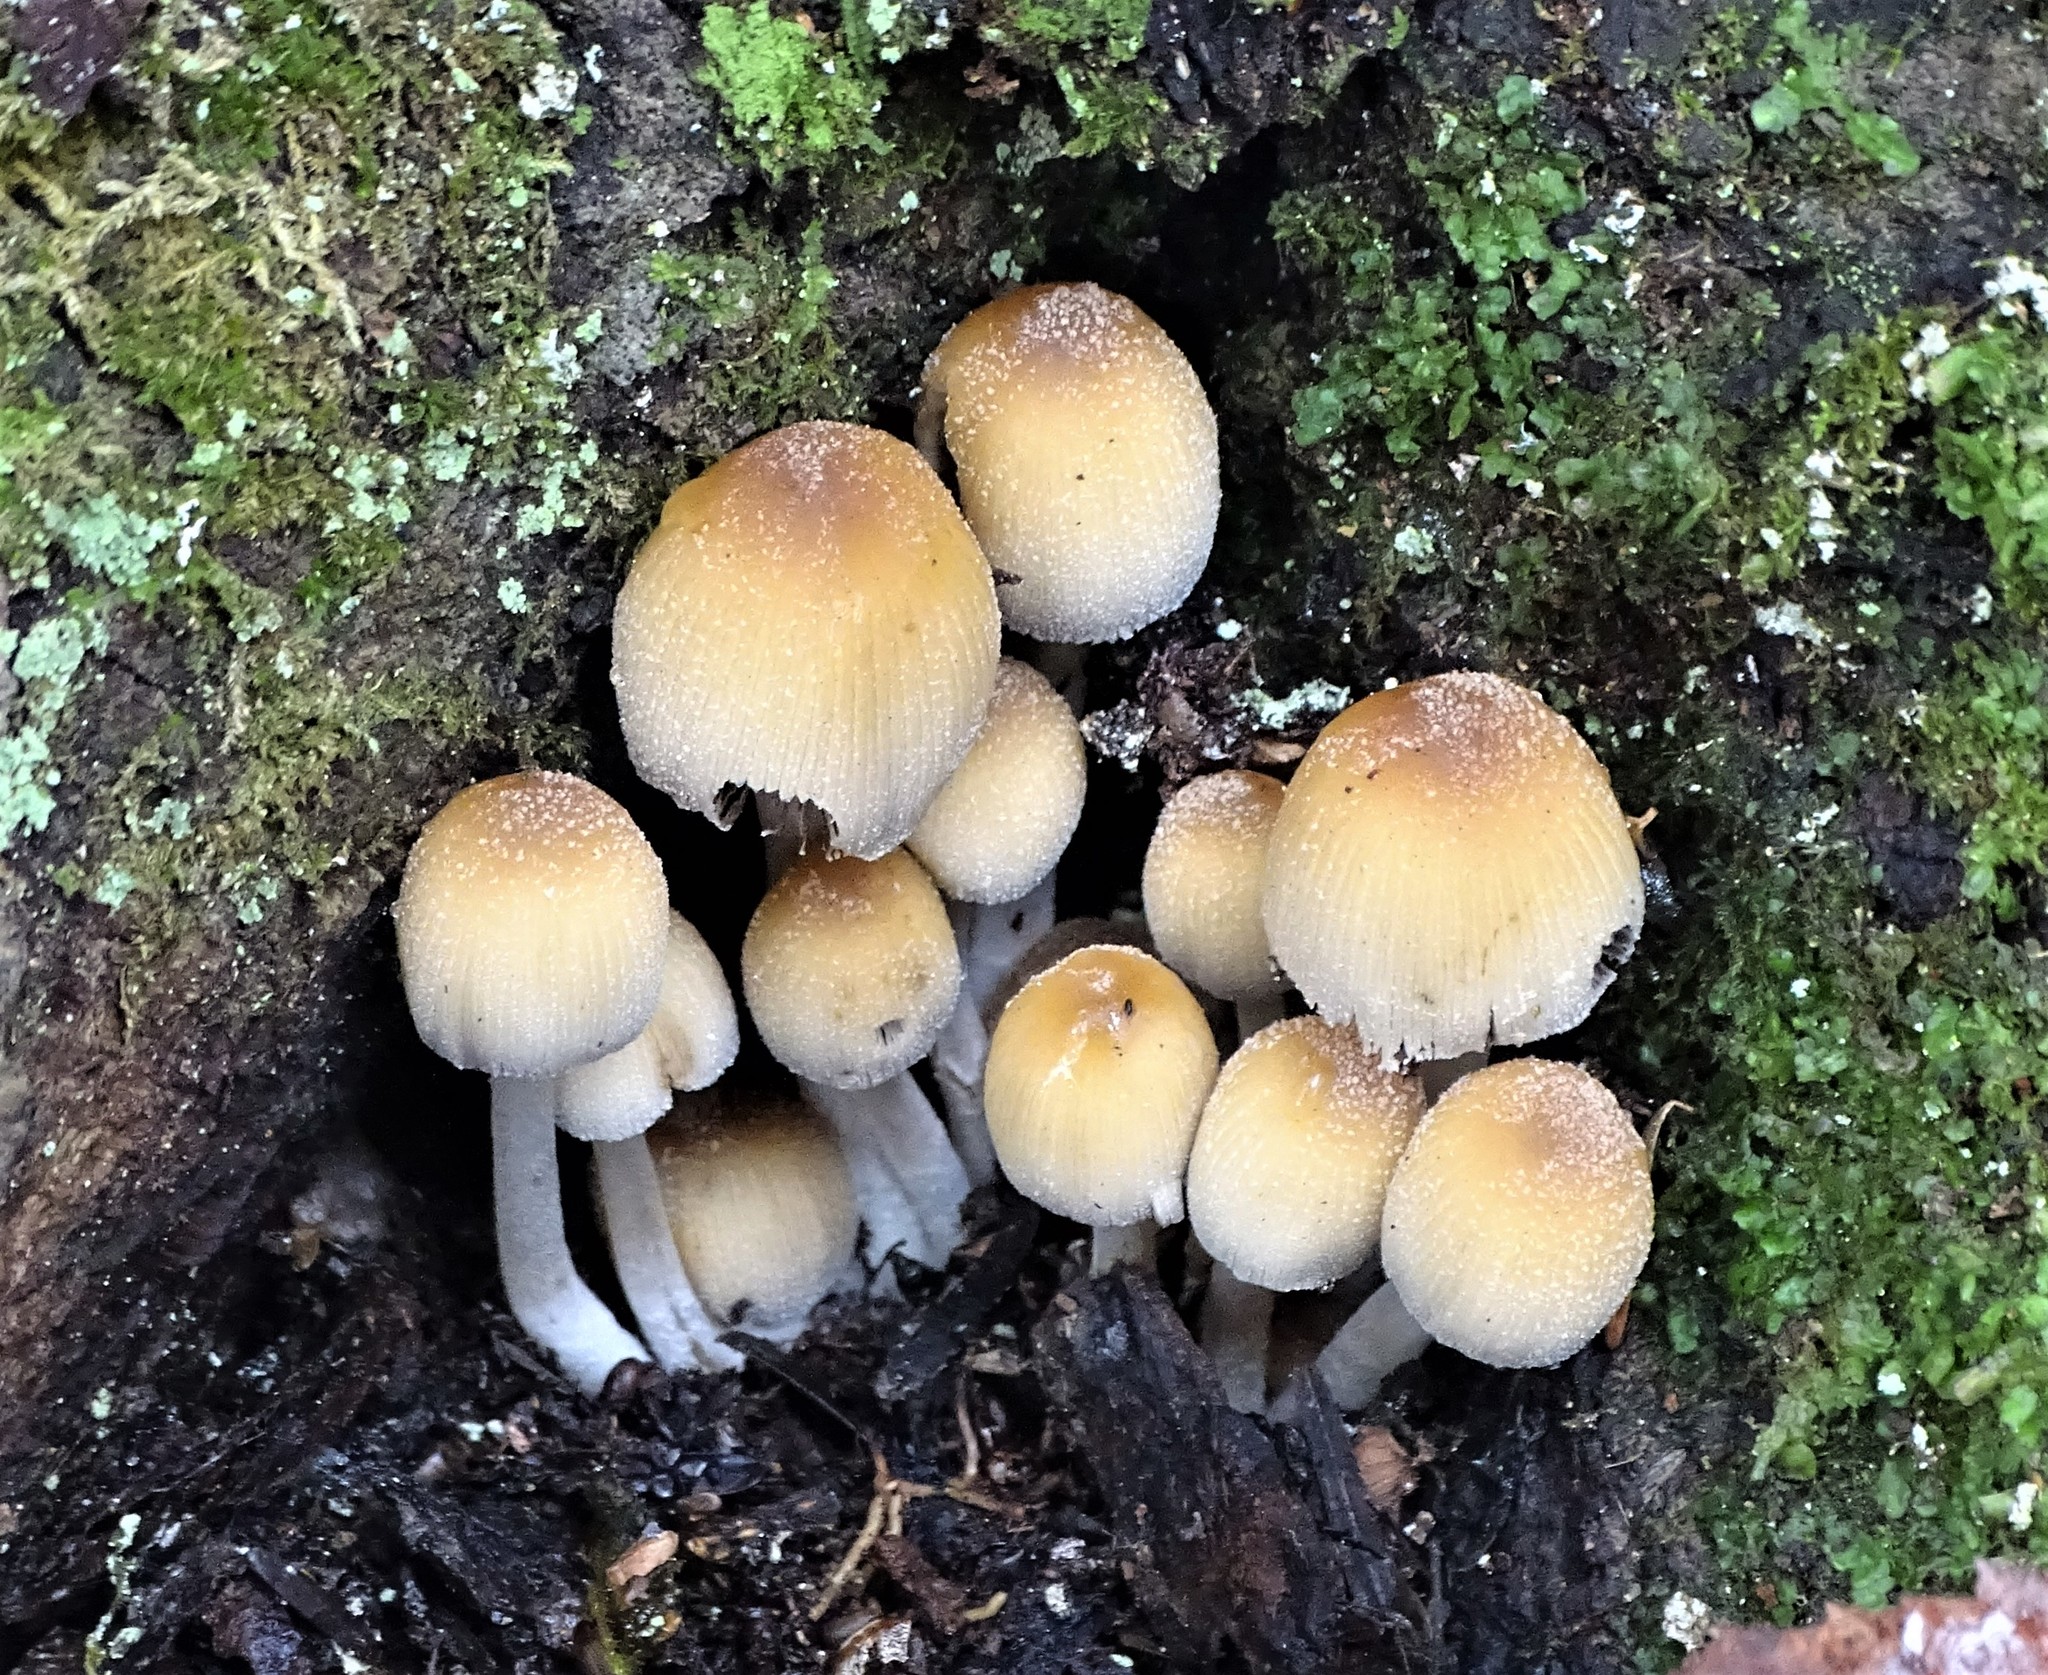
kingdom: Fungi
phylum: Basidiomycota
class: Agaricomycetes
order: Agaricales
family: Psathyrellaceae
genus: Coprinellus
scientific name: Coprinellus micaceus
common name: Glistening ink-cap
